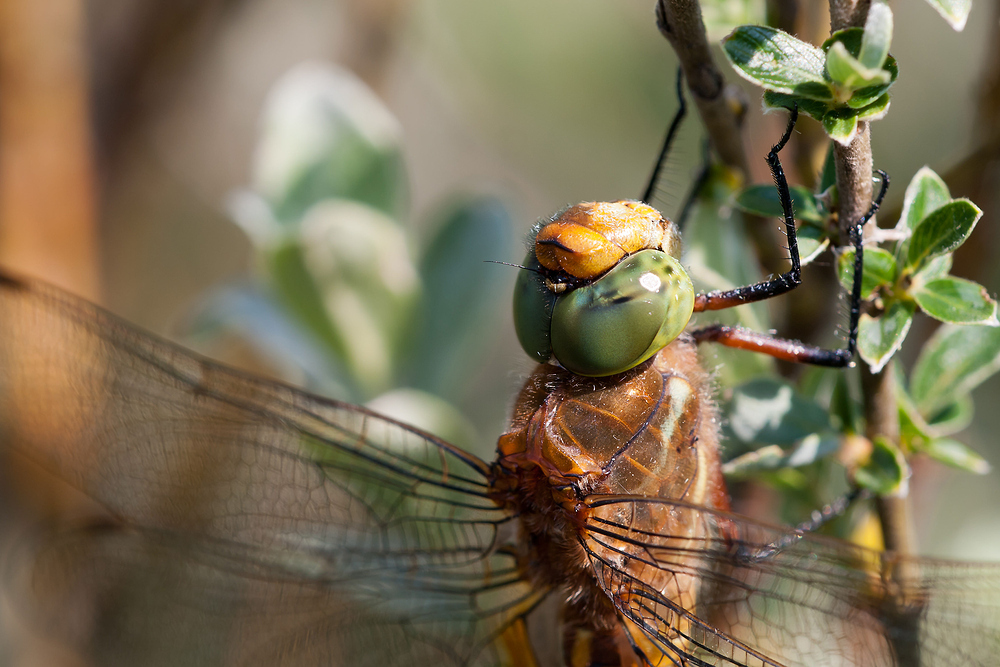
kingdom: Animalia
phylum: Arthropoda
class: Insecta
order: Odonata
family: Aeshnidae
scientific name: Aeshnidae
